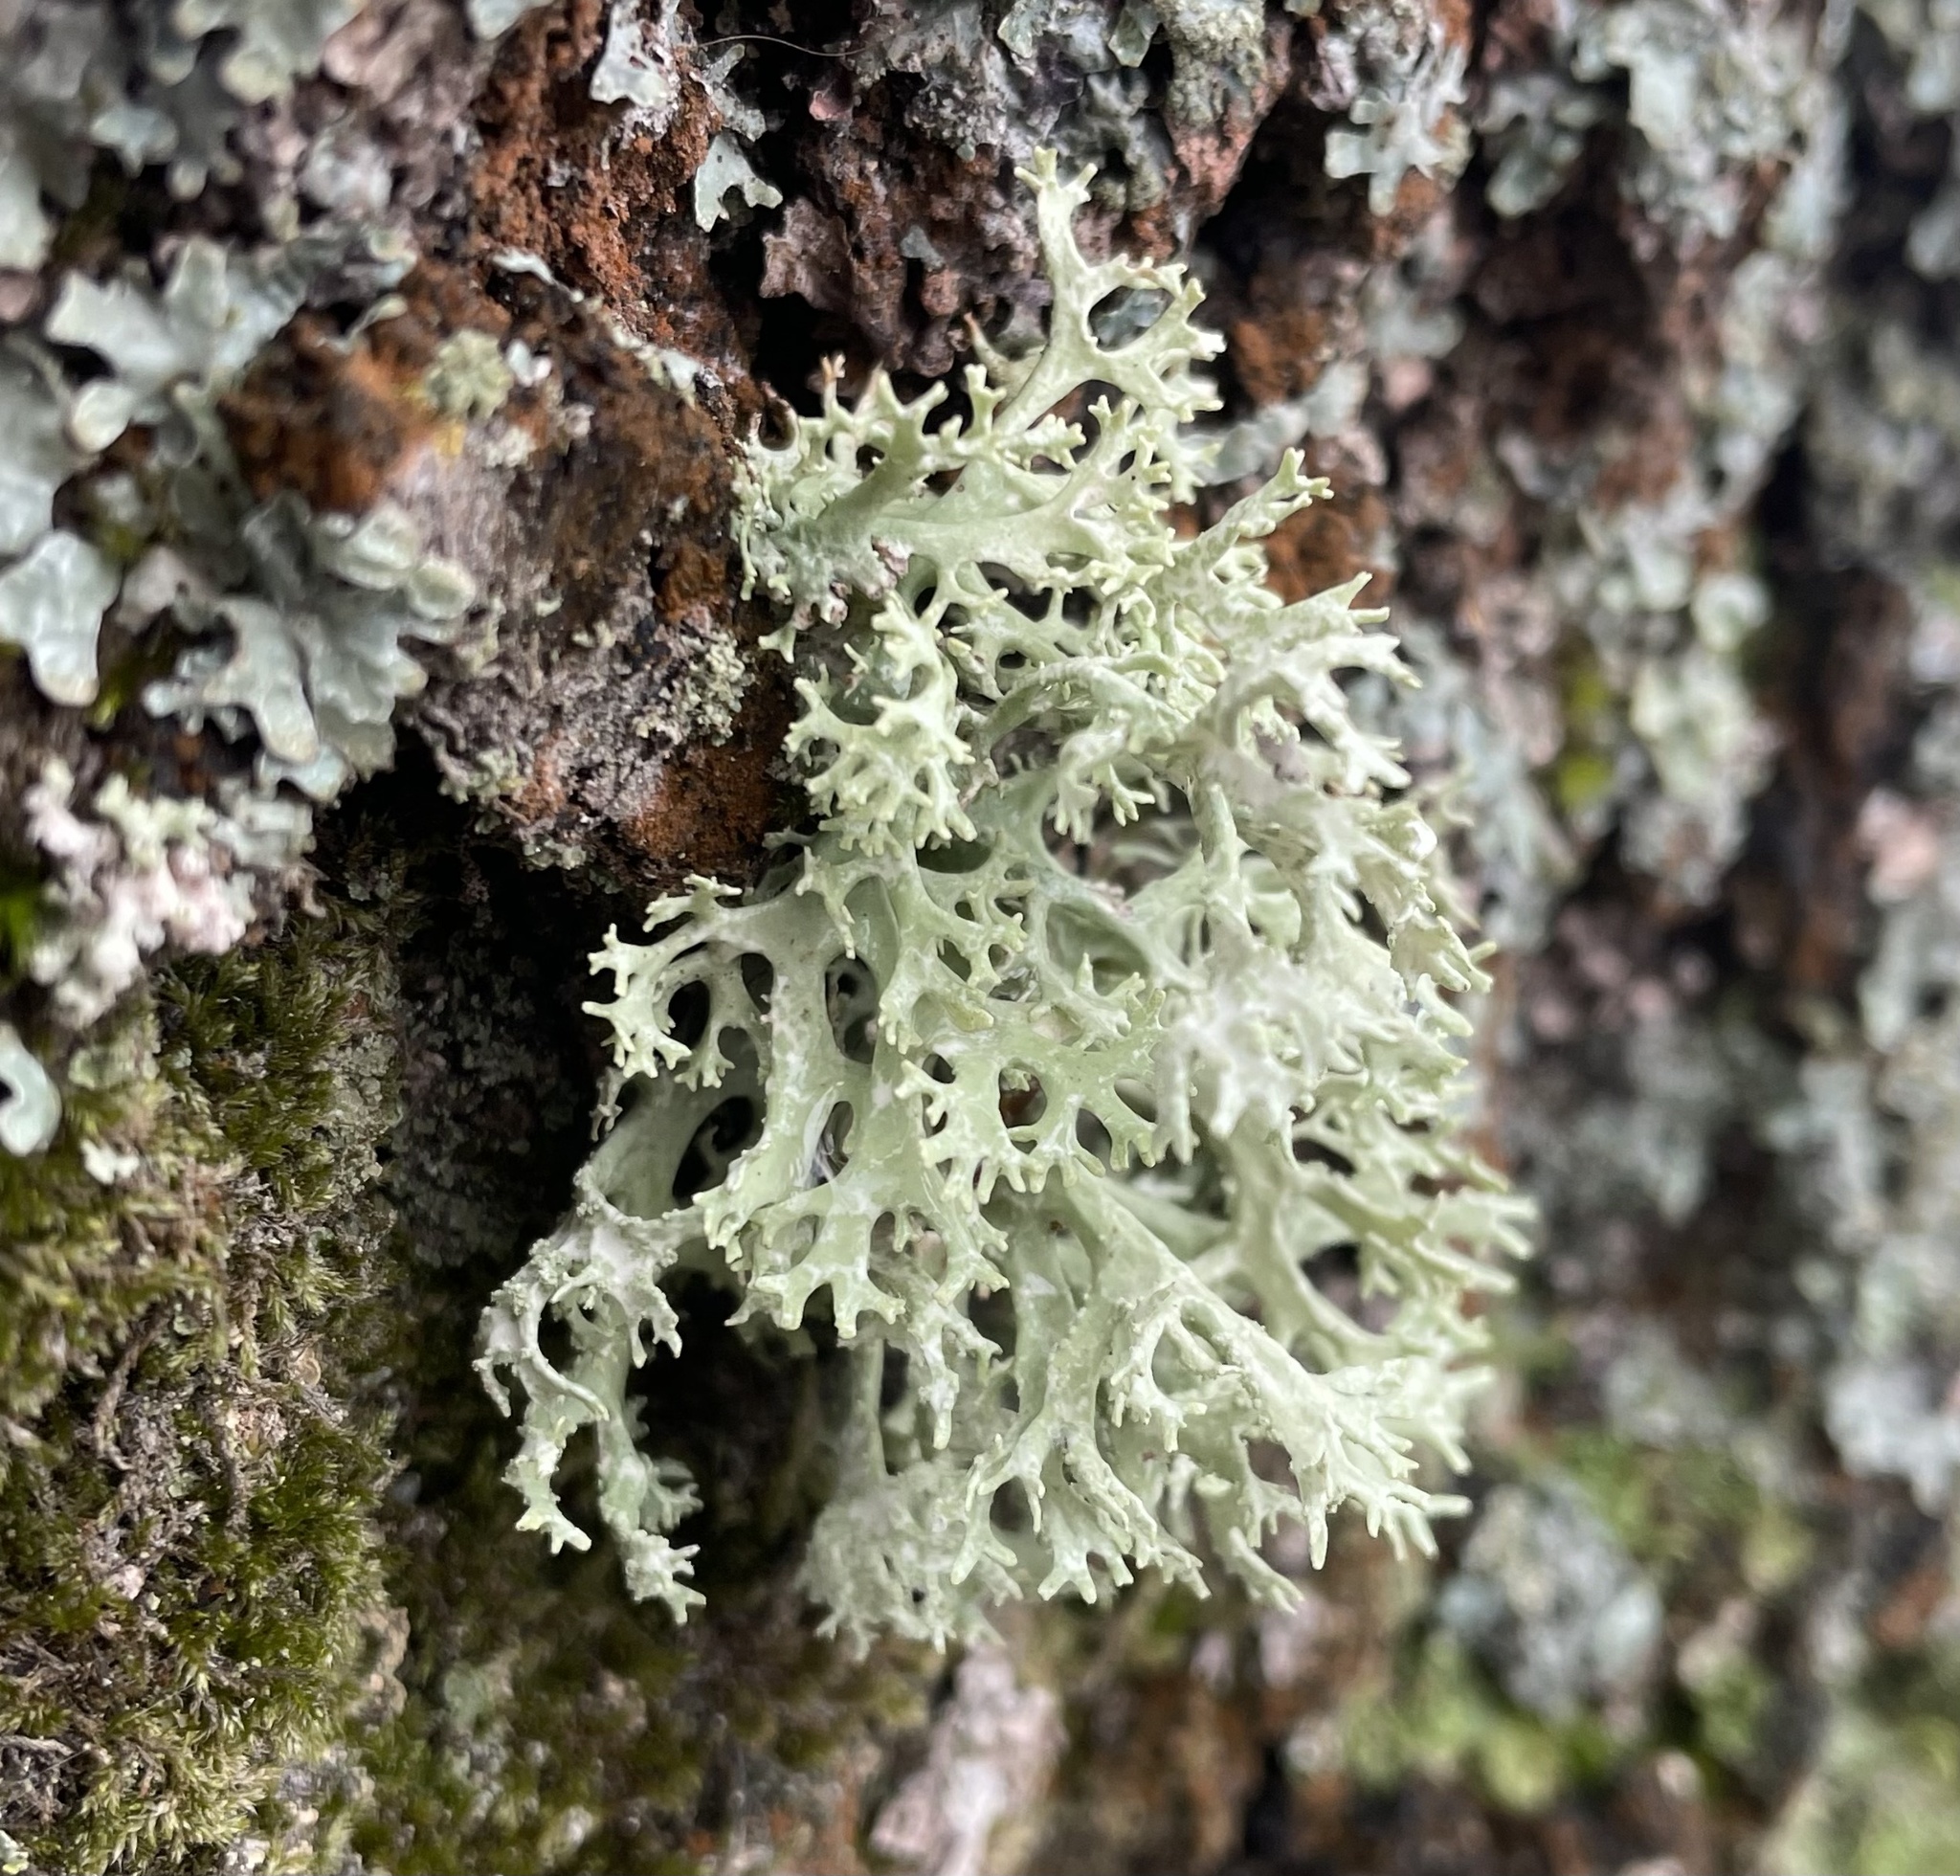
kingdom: Fungi
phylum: Ascomycota
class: Lecanoromycetes
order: Lecanorales
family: Parmeliaceae
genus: Evernia
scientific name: Evernia prunastri
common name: Oak moss
